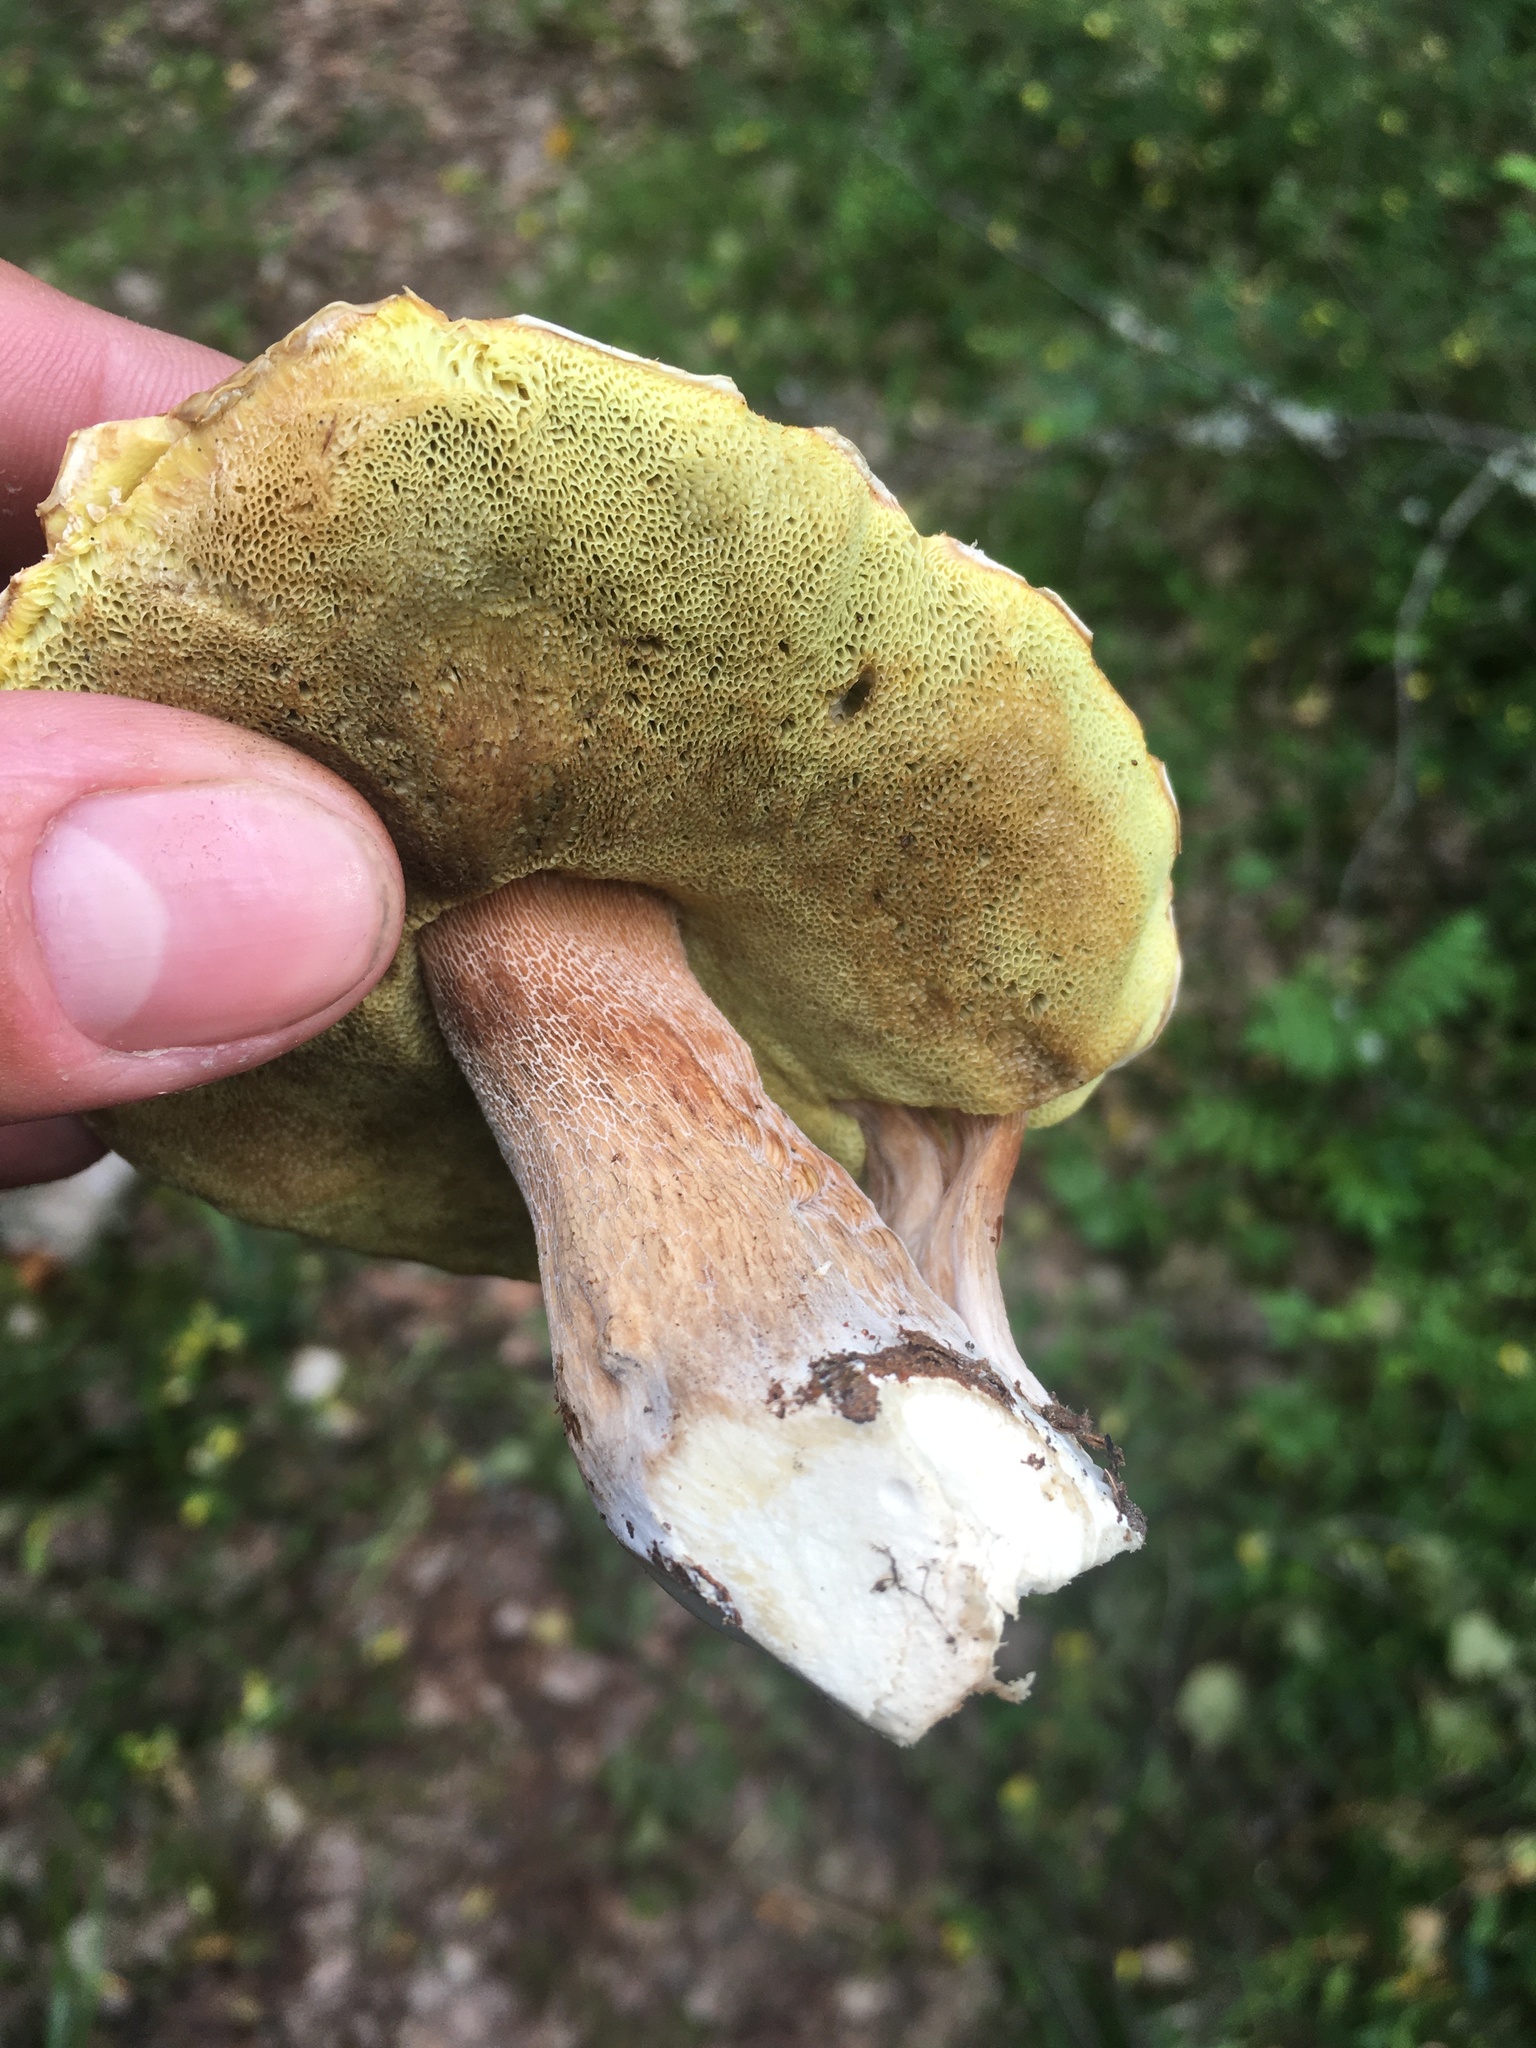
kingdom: Fungi
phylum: Basidiomycota
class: Agaricomycetes
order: Boletales
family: Boletaceae
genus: Boletus
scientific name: Boletus edulis
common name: Cep
